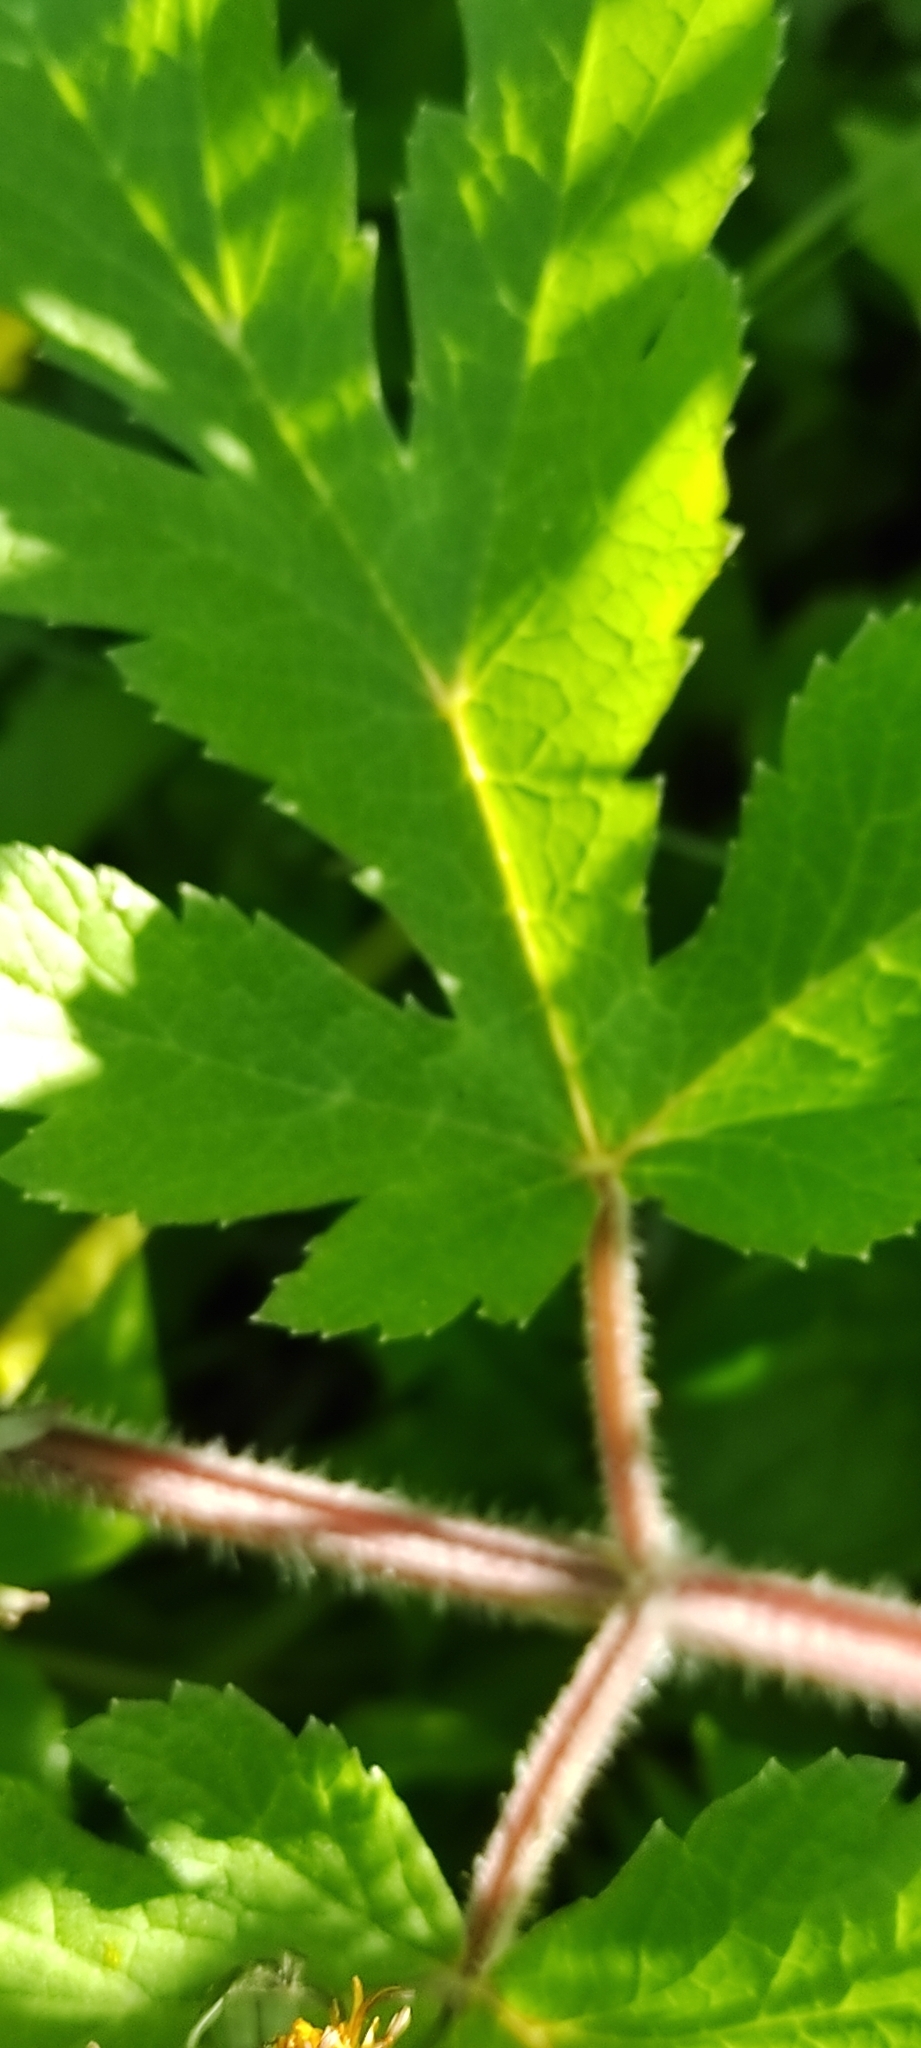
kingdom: Plantae
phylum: Tracheophyta
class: Magnoliopsida
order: Apiales
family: Apiaceae
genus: Heracleum
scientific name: Heracleum sphondylium
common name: Hogweed
